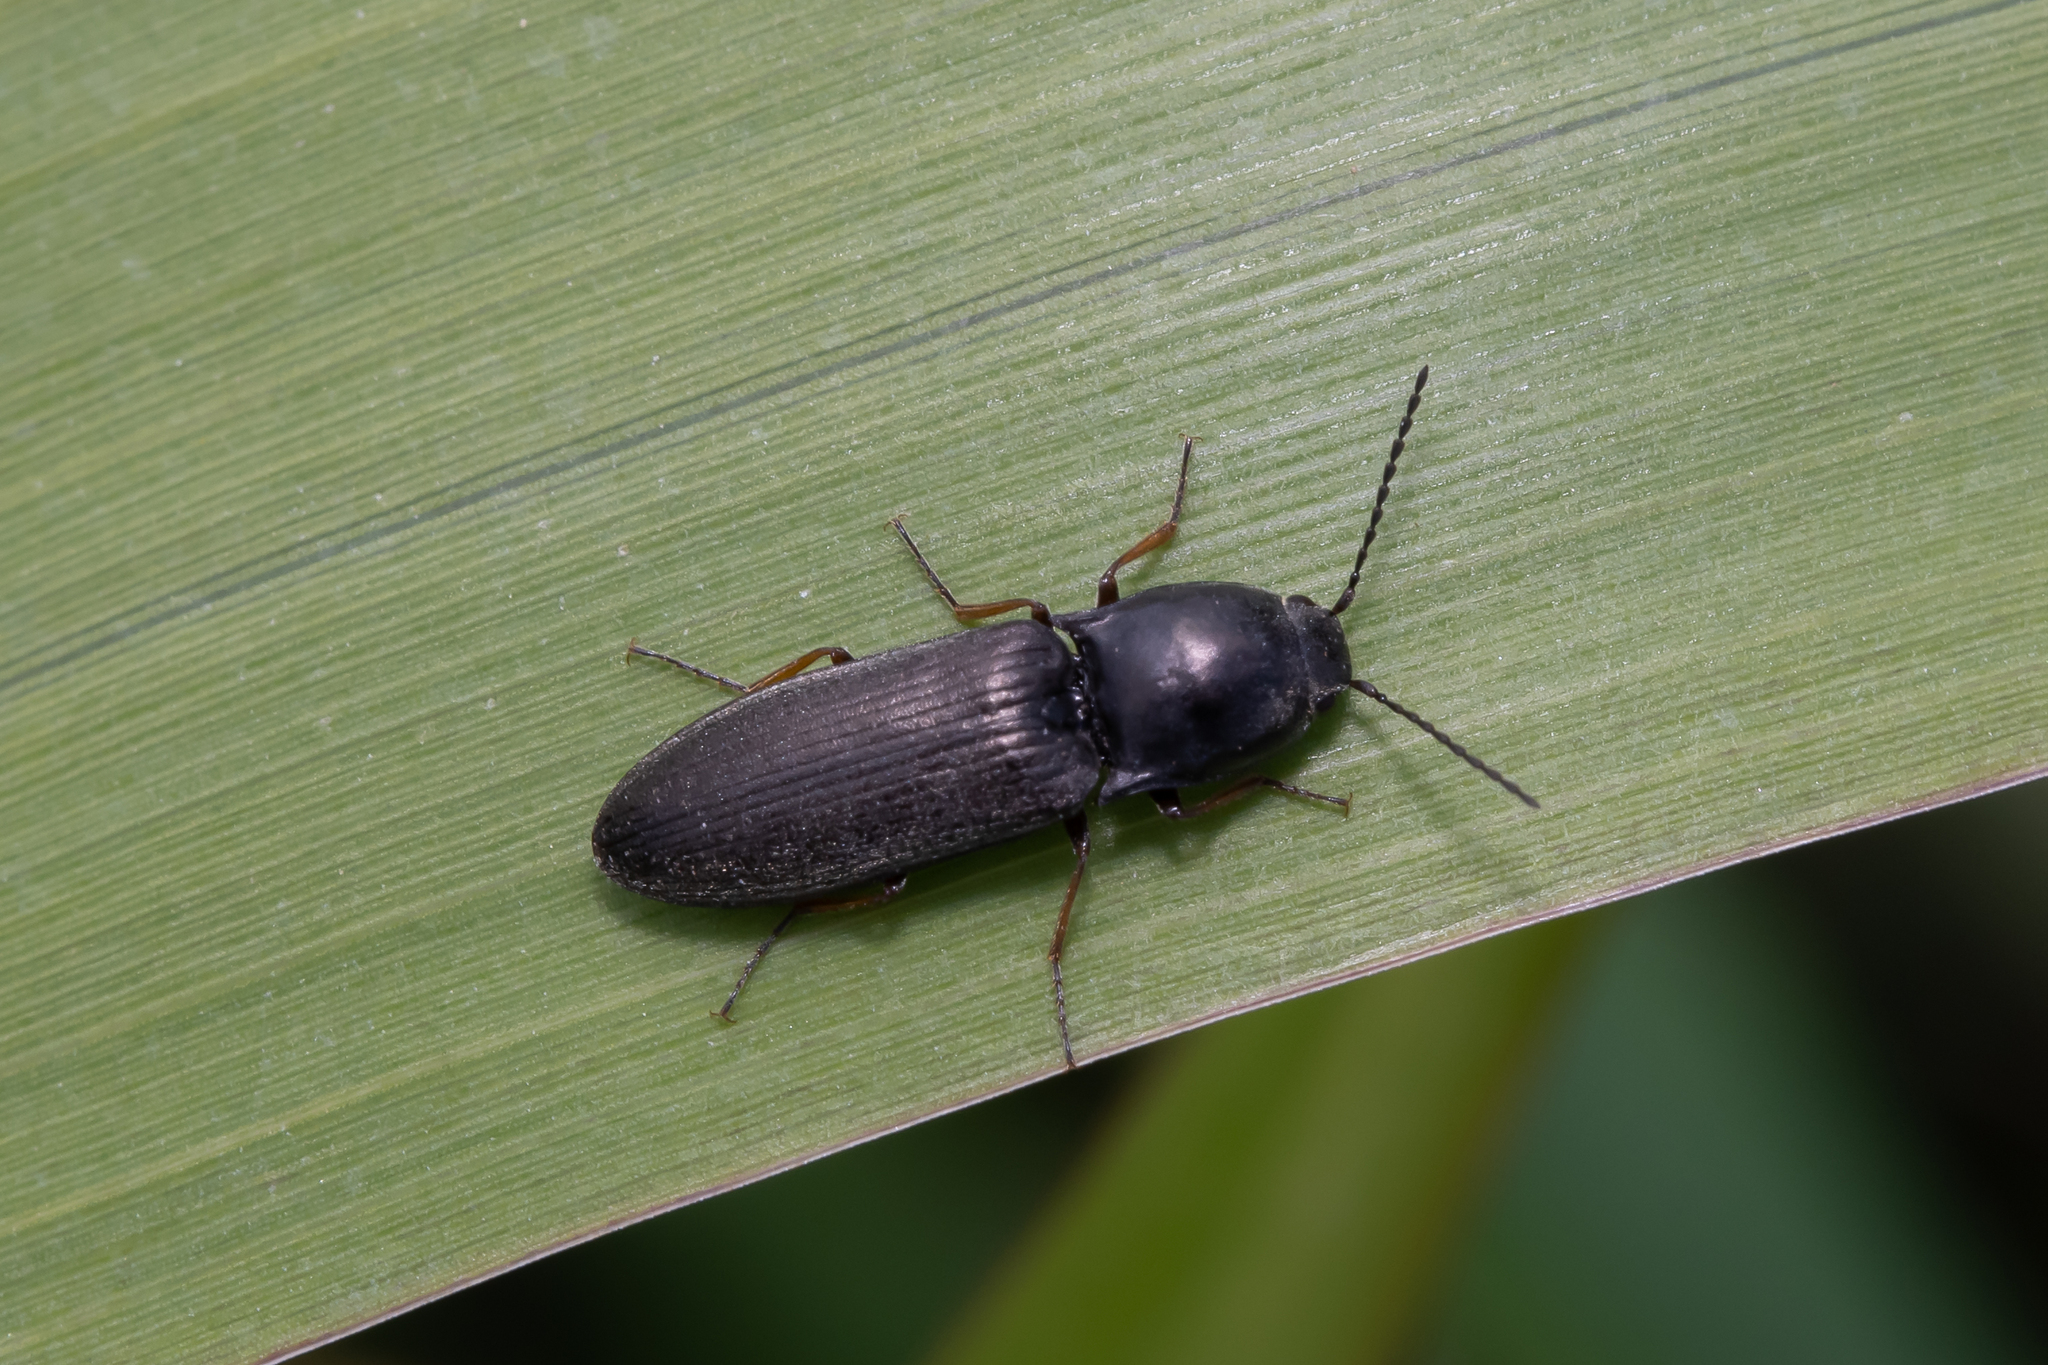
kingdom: Animalia
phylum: Arthropoda
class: Insecta
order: Coleoptera
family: Elateridae
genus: Aplotarsus
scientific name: Aplotarsus incanus
